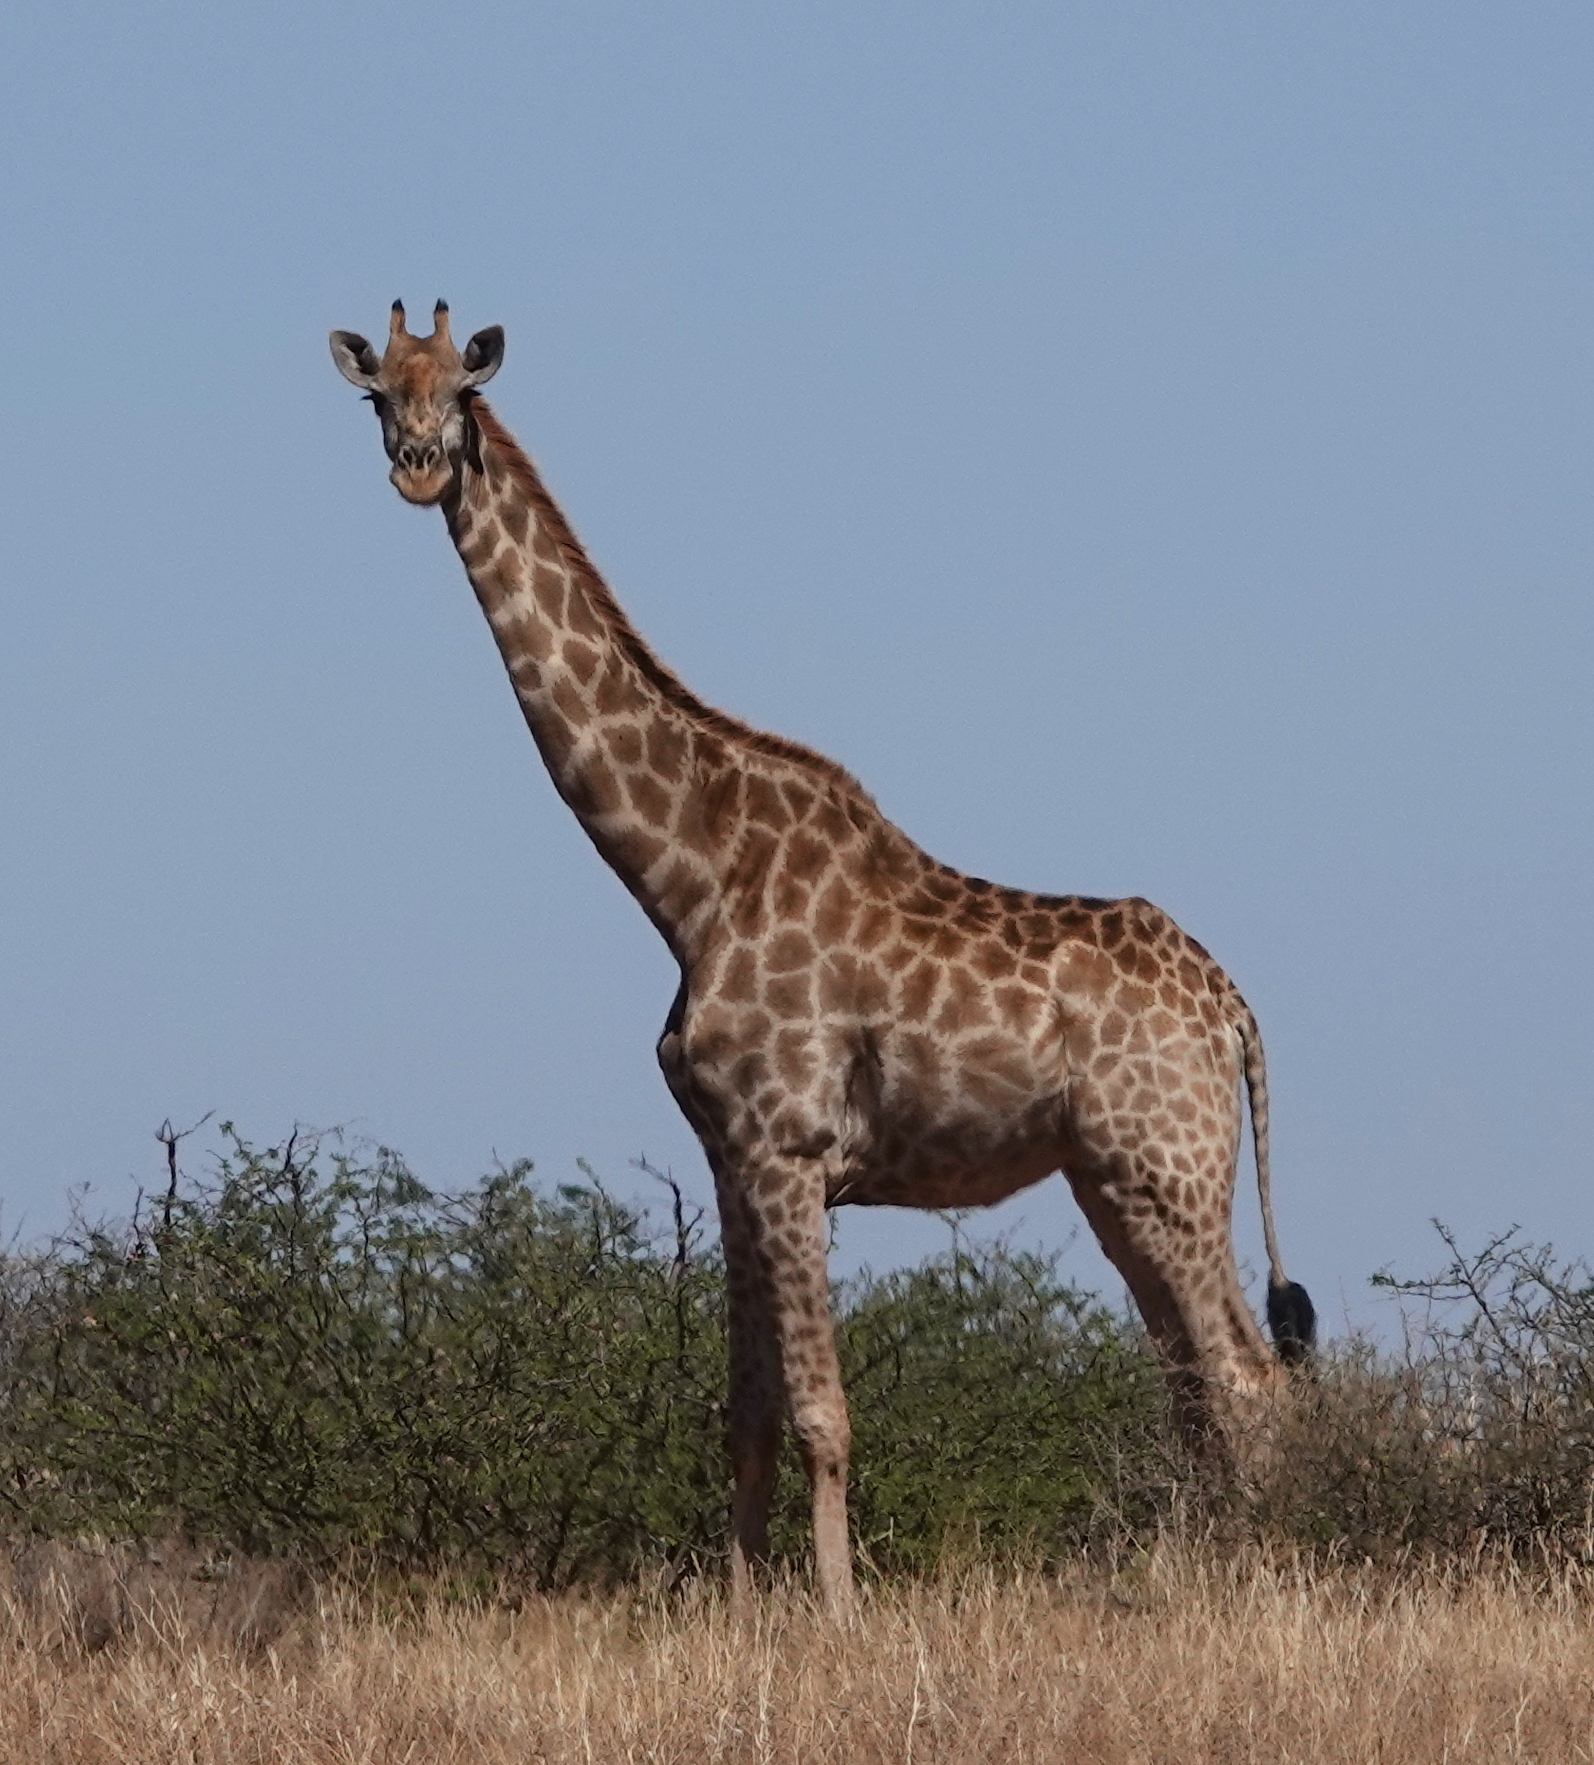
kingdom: Animalia
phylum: Chordata
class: Mammalia
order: Artiodactyla
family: Giraffidae
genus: Giraffa
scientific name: Giraffa giraffa
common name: Southern giraffe
